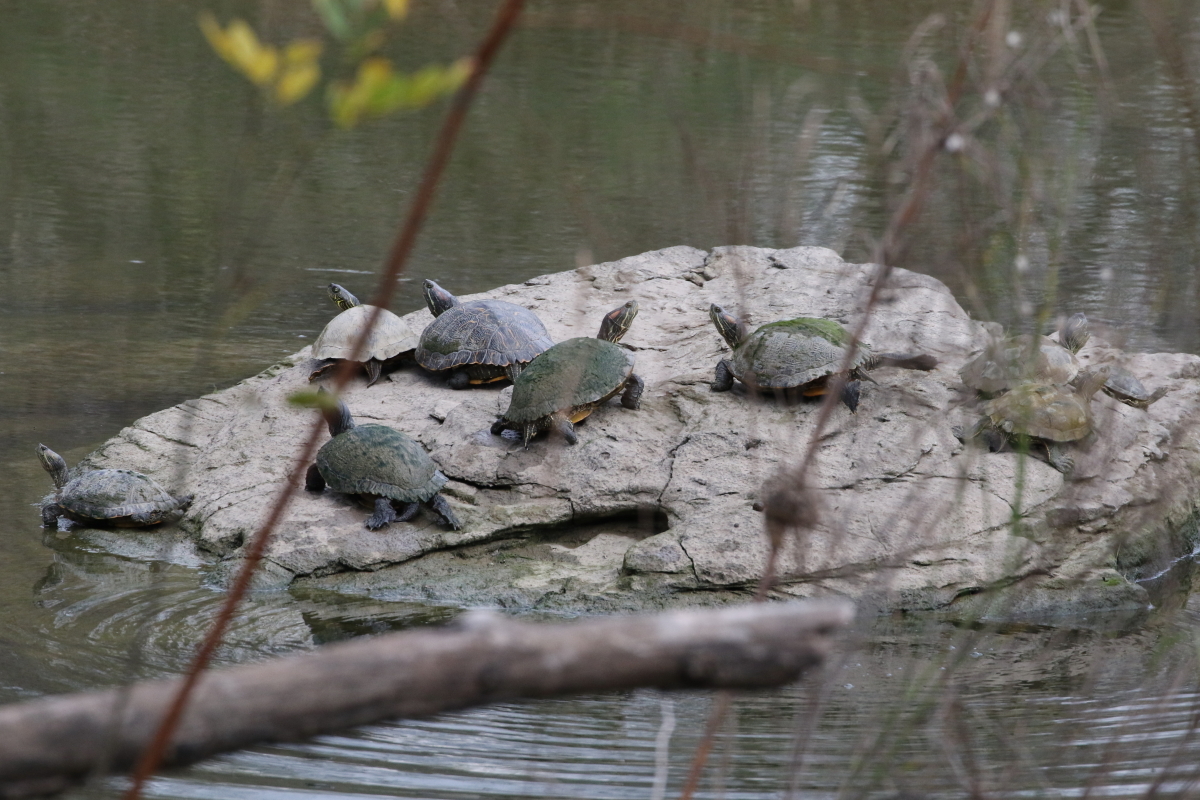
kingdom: Animalia
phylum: Chordata
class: Testudines
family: Emydidae
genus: Trachemys
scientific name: Trachemys scripta
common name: Slider
